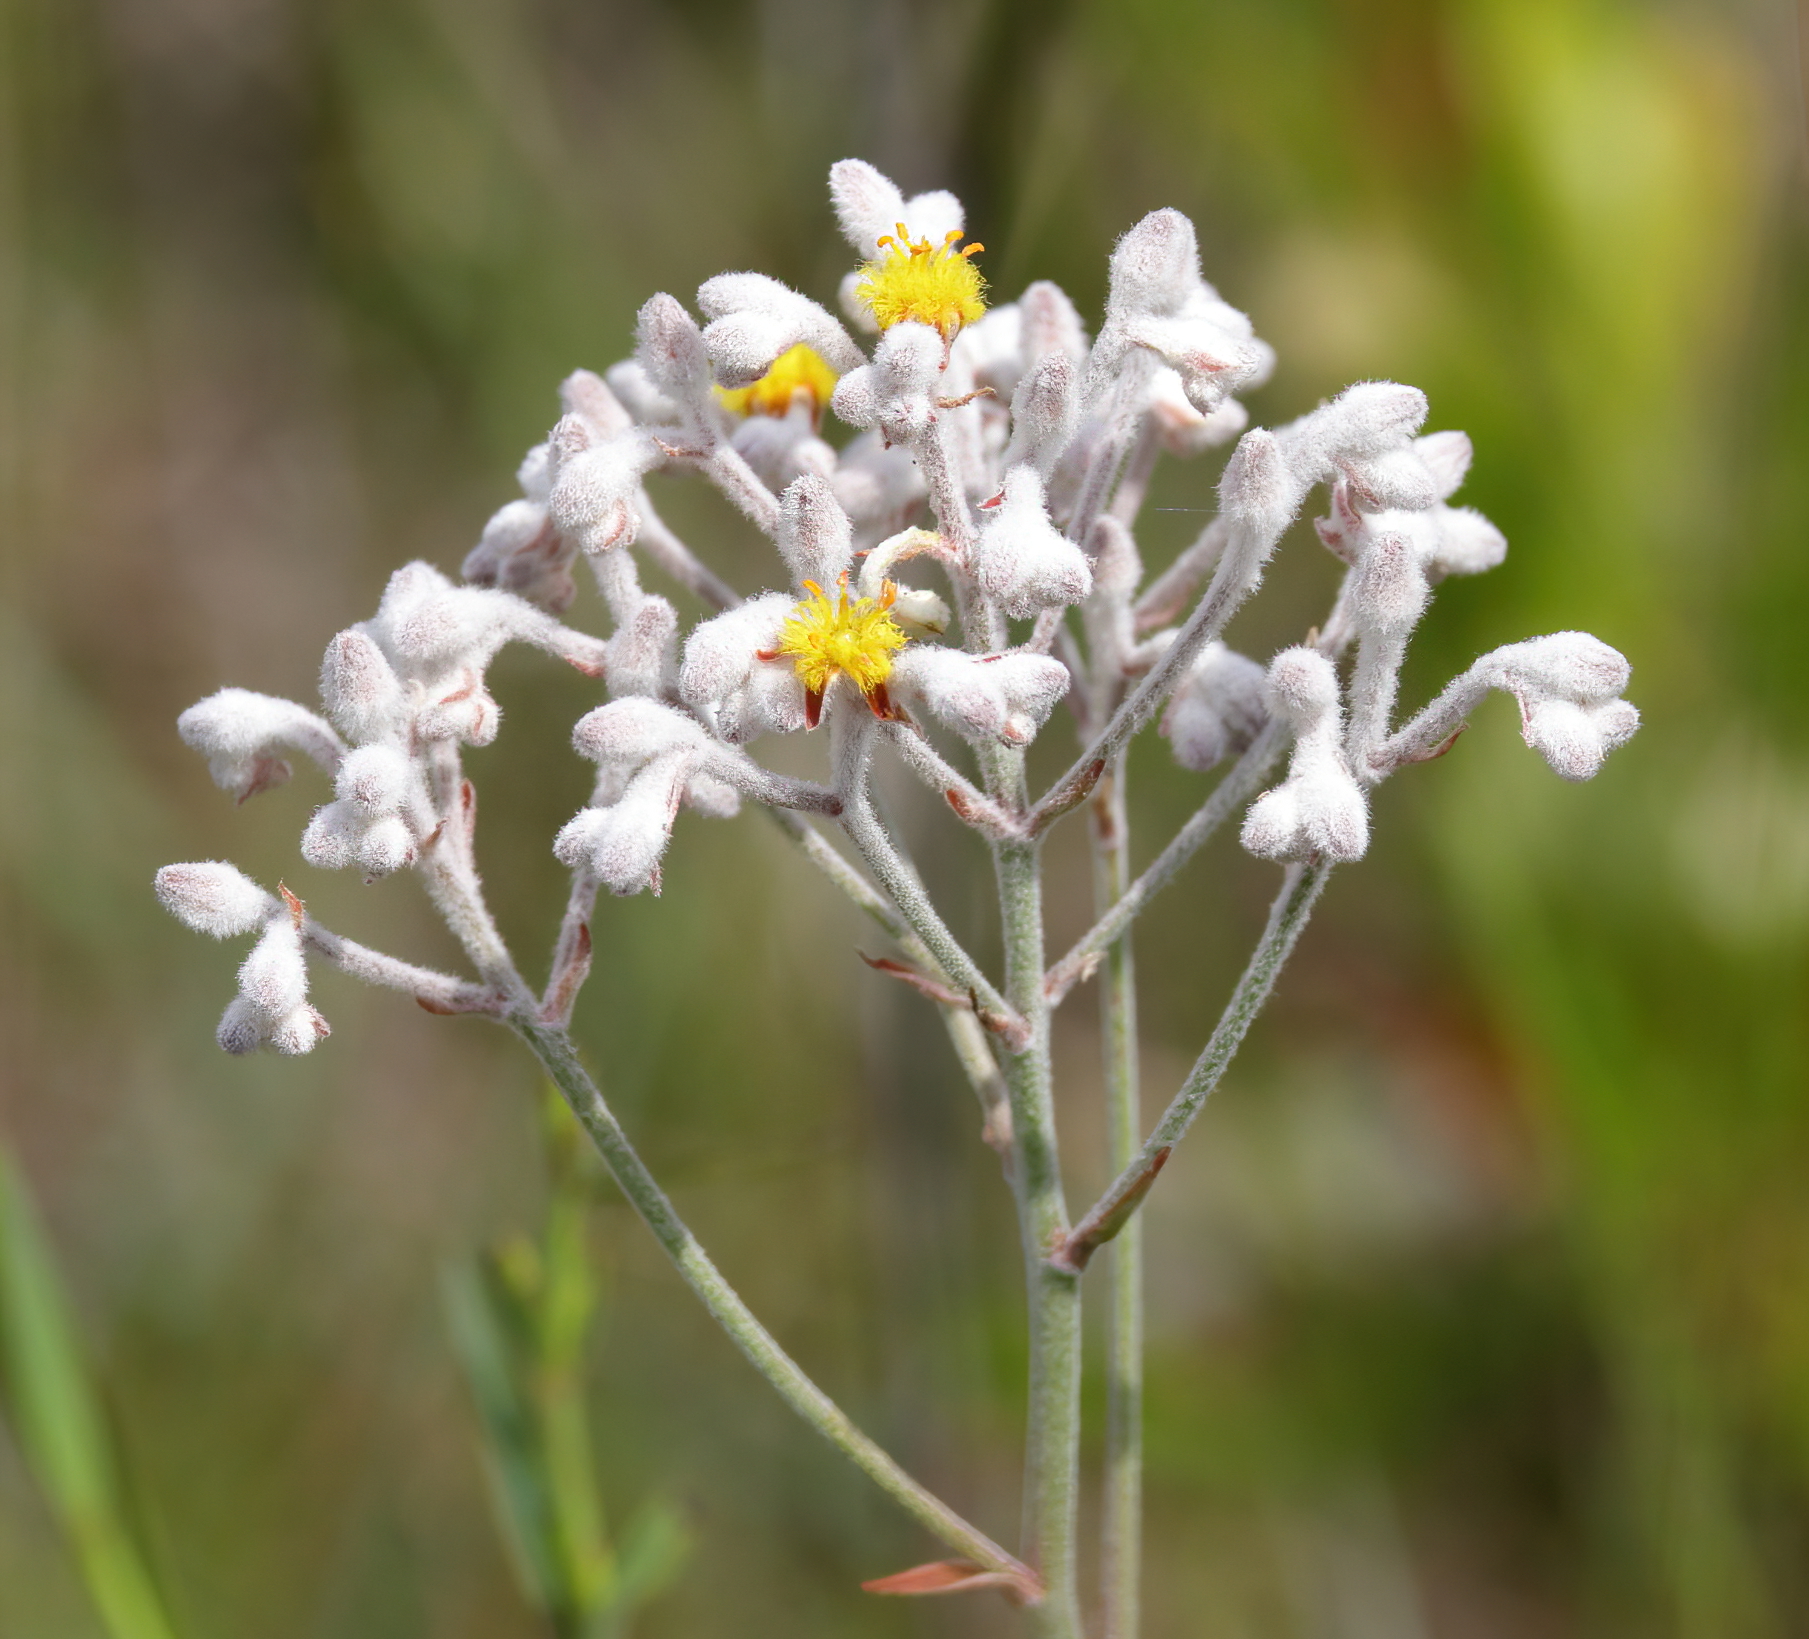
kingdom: Plantae
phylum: Tracheophyta
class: Liliopsida
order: Dioscoreales
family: Nartheciaceae
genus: Lophiola
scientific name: Lophiola aurea
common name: Golden-crest
